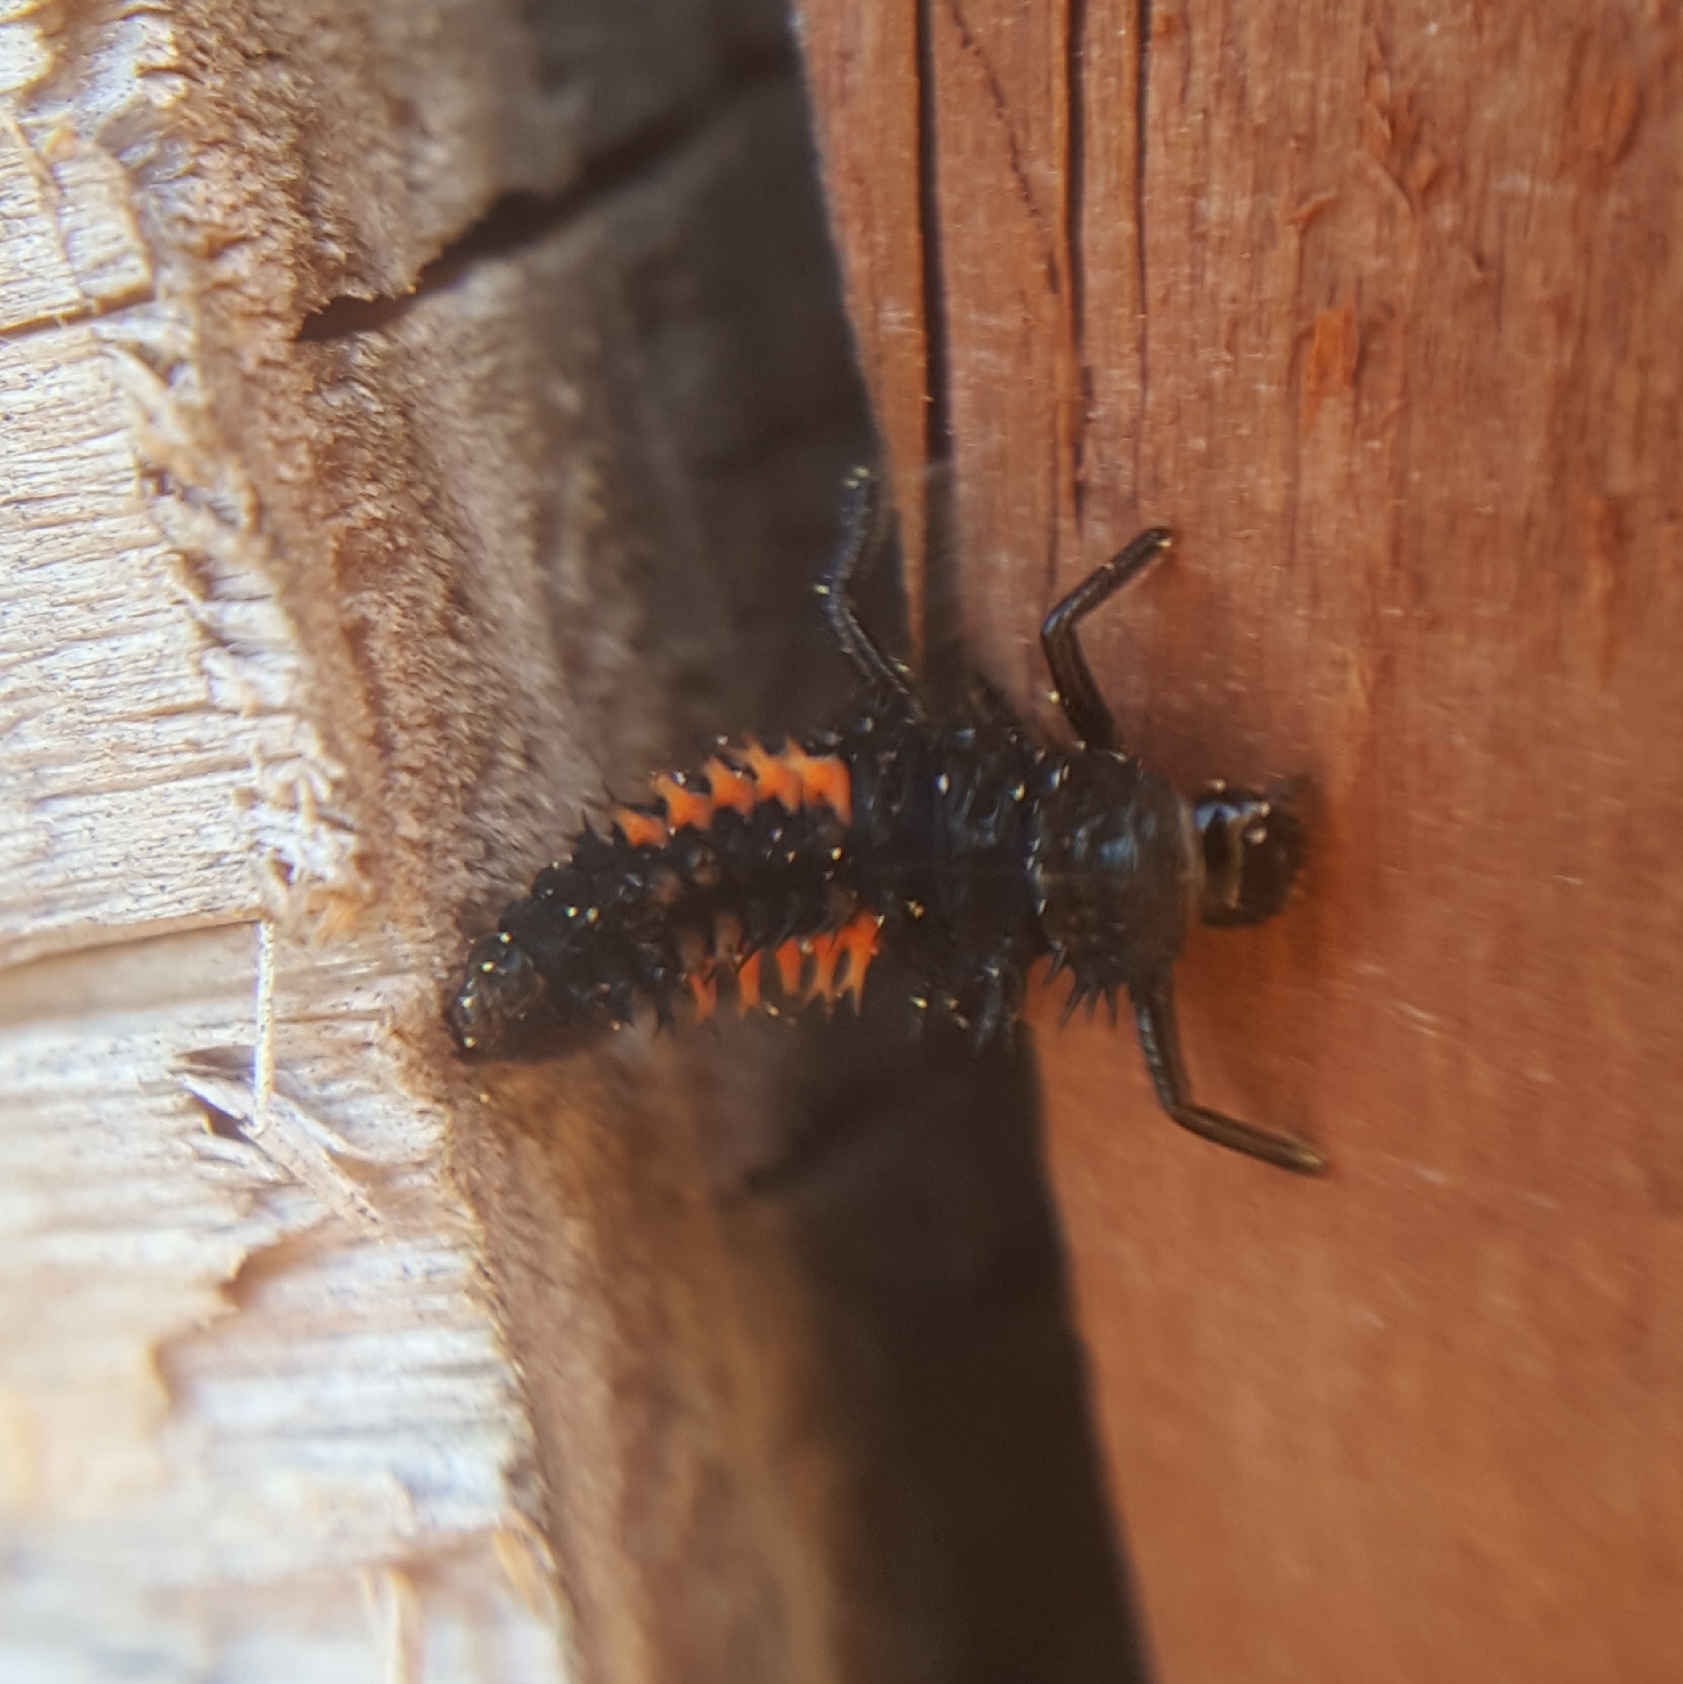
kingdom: Animalia
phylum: Arthropoda
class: Insecta
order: Coleoptera
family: Coccinellidae
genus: Harmonia
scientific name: Harmonia axyridis
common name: Harlequin ladybird
